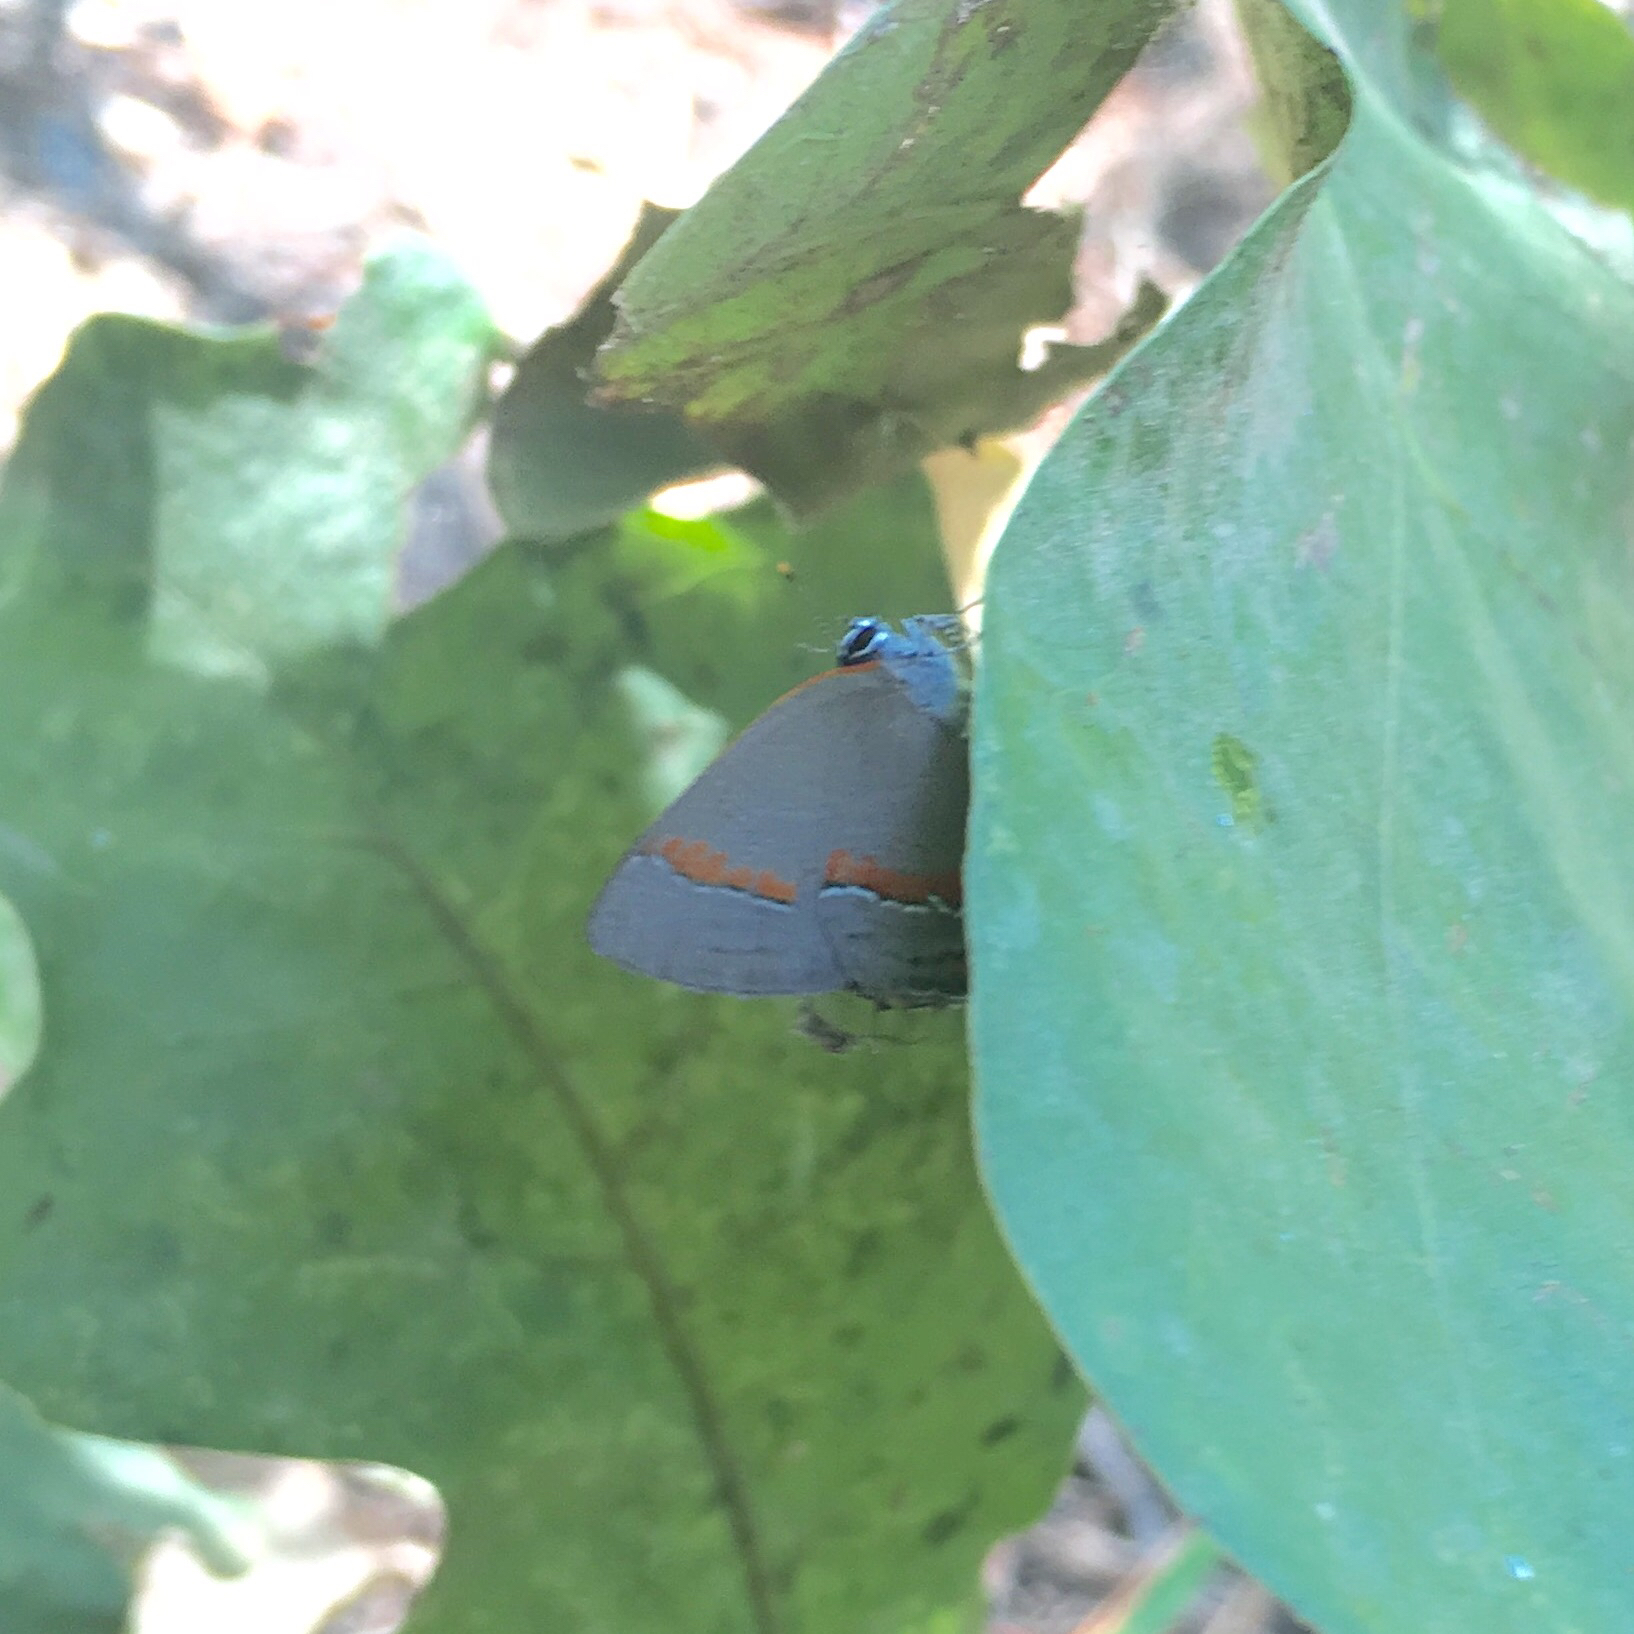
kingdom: Animalia
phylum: Arthropoda
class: Insecta
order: Lepidoptera
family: Lycaenidae
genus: Calycopis
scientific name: Calycopis cecrops
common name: Red-banded hairstreak
